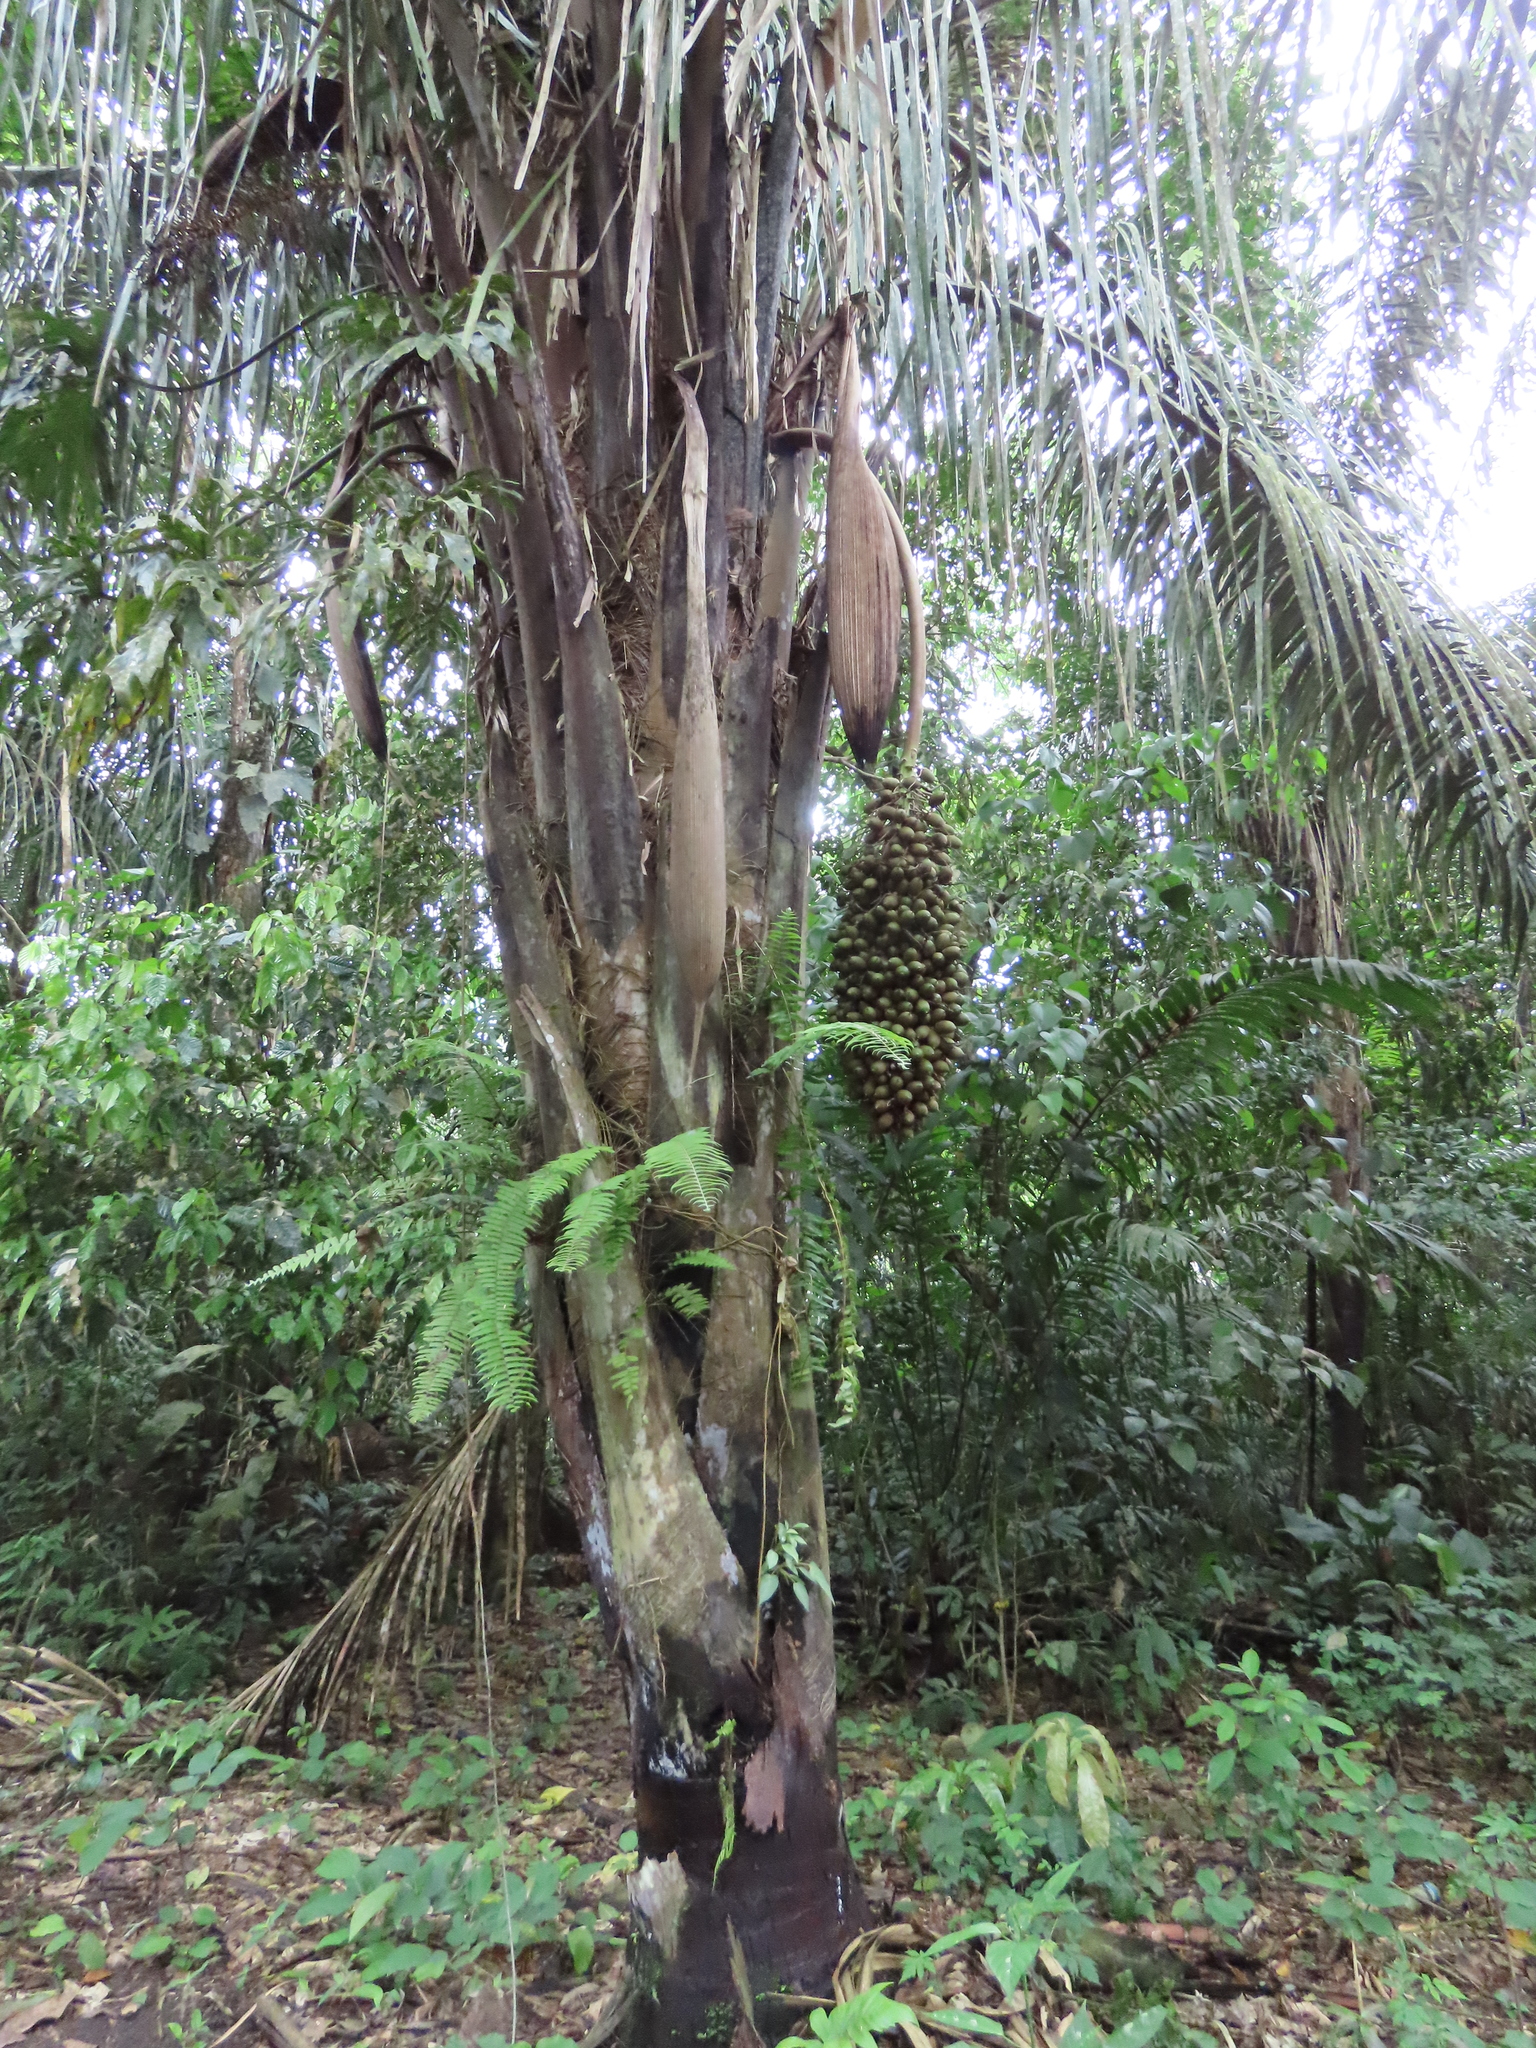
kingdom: Plantae
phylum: Tracheophyta
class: Liliopsida
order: Arecales
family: Arecaceae
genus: Attalea
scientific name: Attalea butyracea
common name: Kuakish
